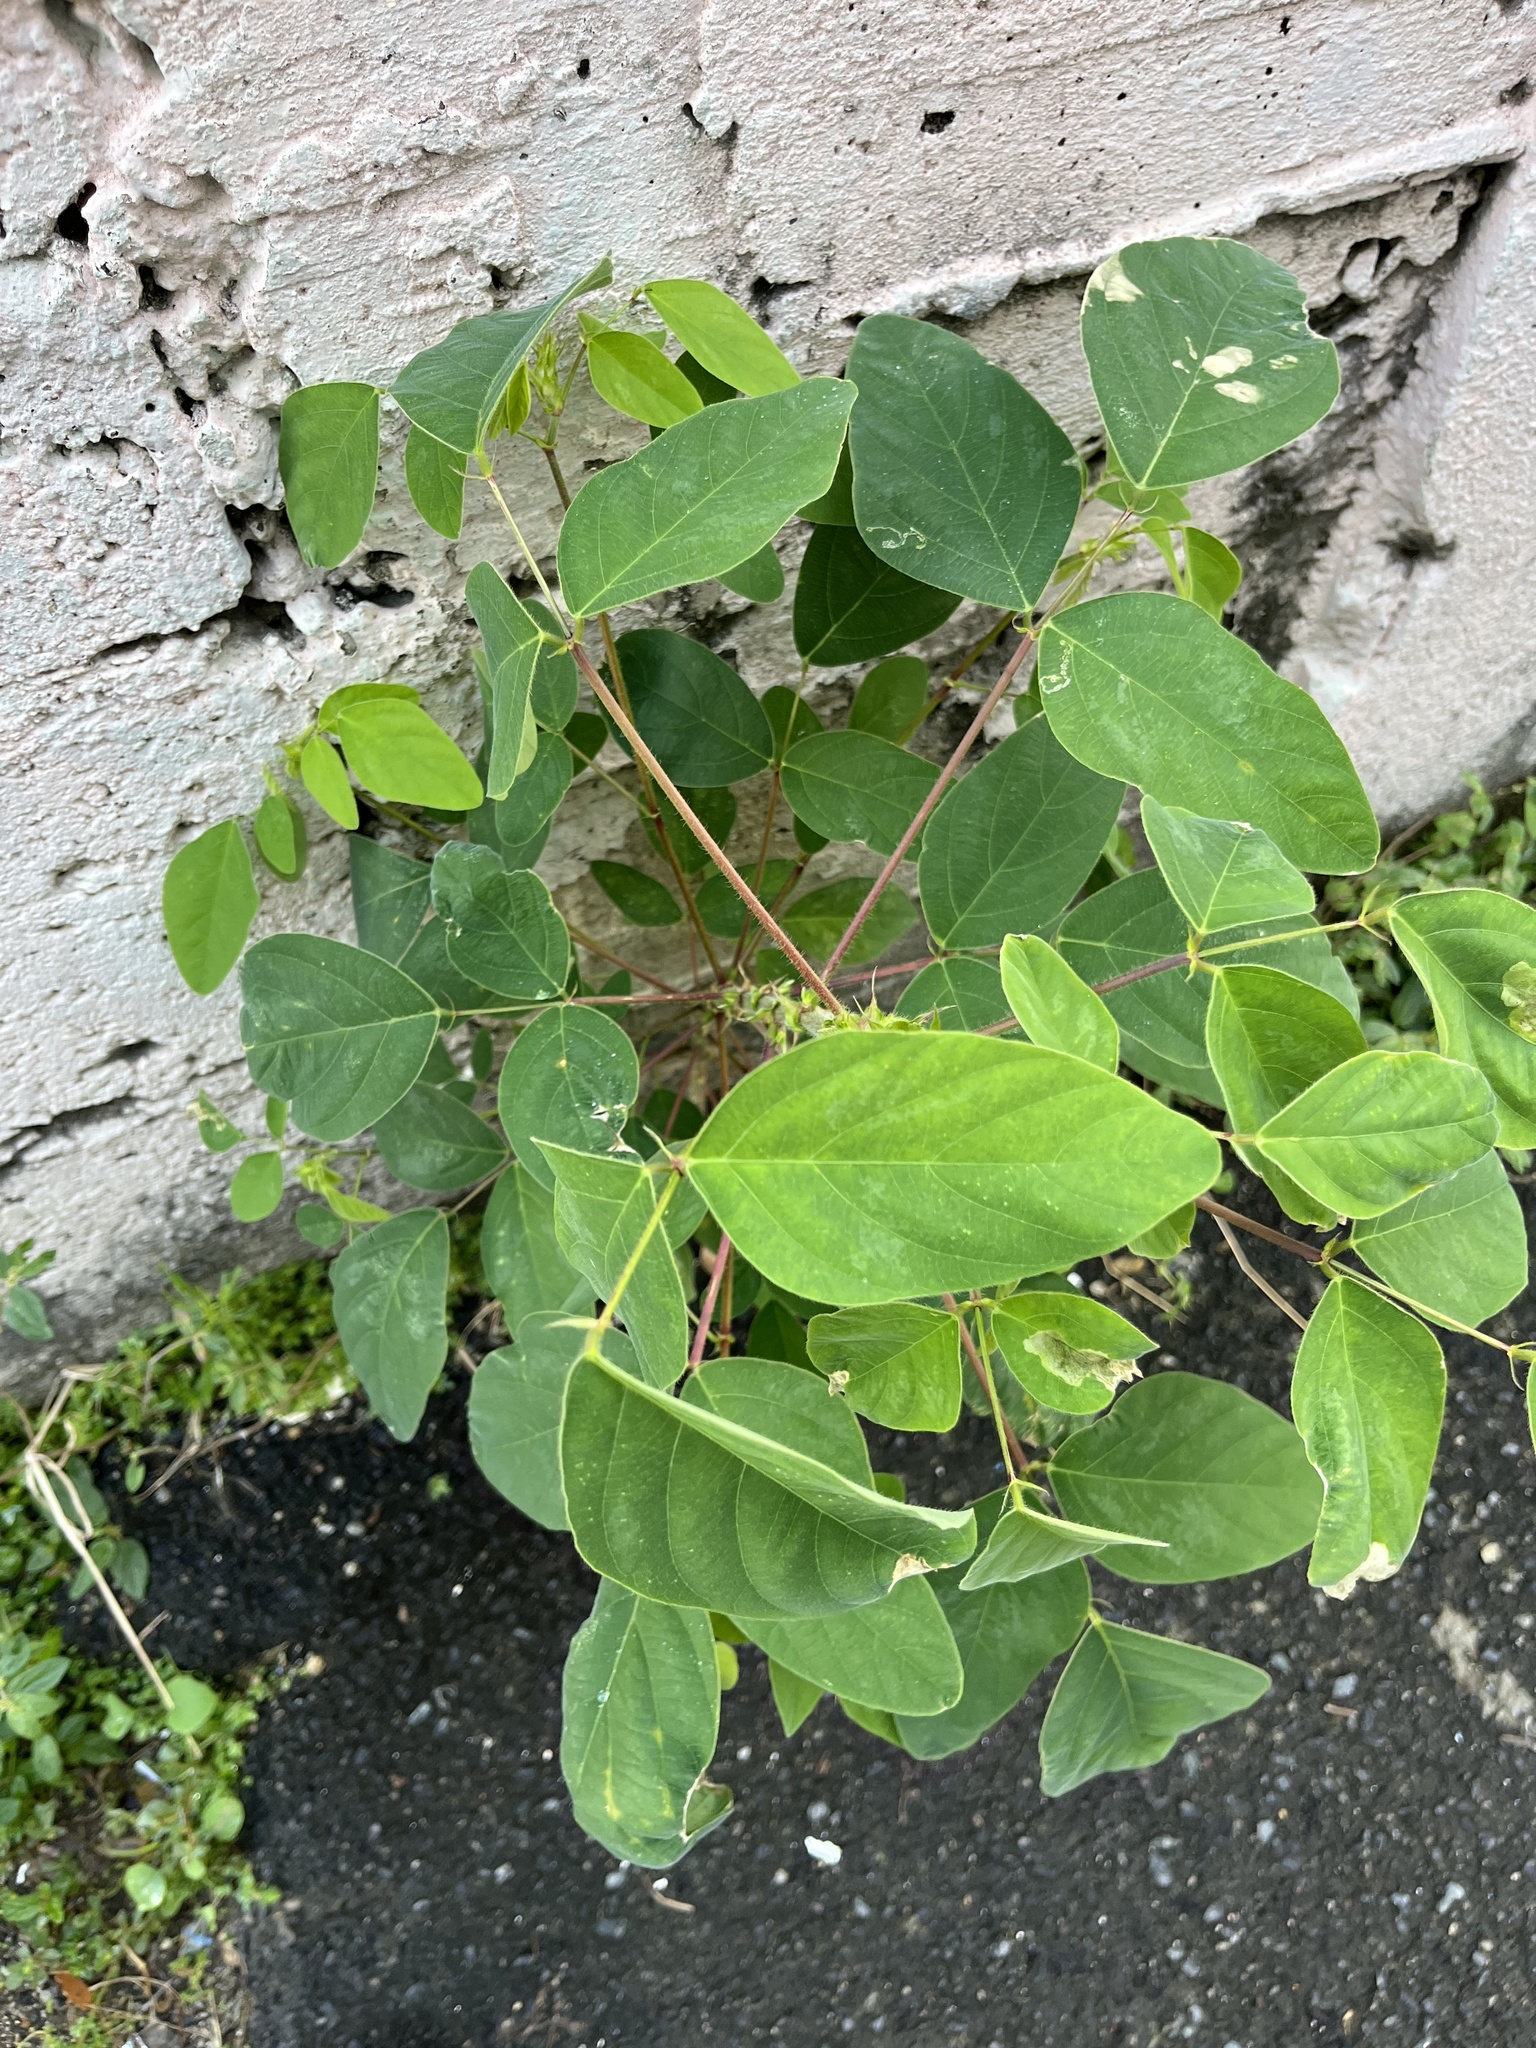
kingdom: Plantae
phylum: Tracheophyta
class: Magnoliopsida
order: Fabales
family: Fabaceae
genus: Desmodium
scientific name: Desmodium tortuosum
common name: Dixie ticktrefoil
